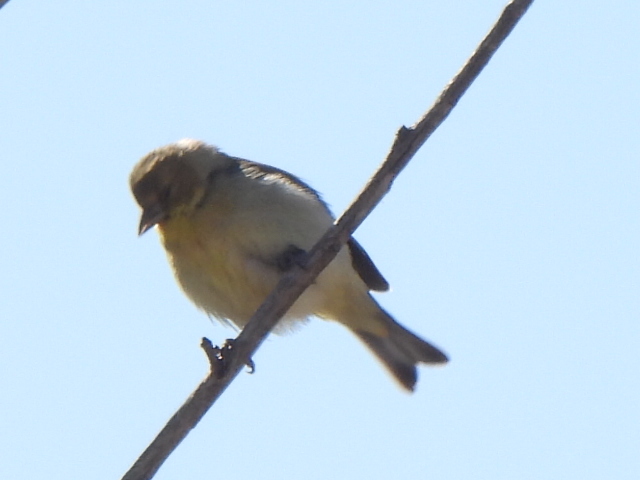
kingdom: Animalia
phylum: Chordata
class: Aves
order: Passeriformes
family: Fringillidae
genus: Spinus
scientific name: Spinus psaltria
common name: Lesser goldfinch
